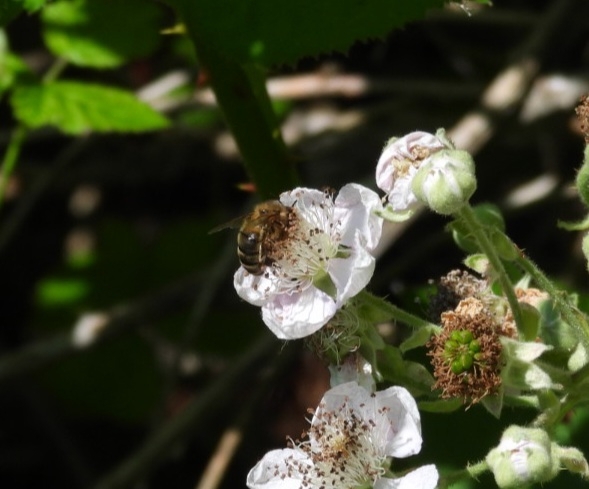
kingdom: Animalia
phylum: Arthropoda
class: Insecta
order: Hymenoptera
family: Apidae
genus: Apis
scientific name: Apis mellifera
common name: Honey bee
